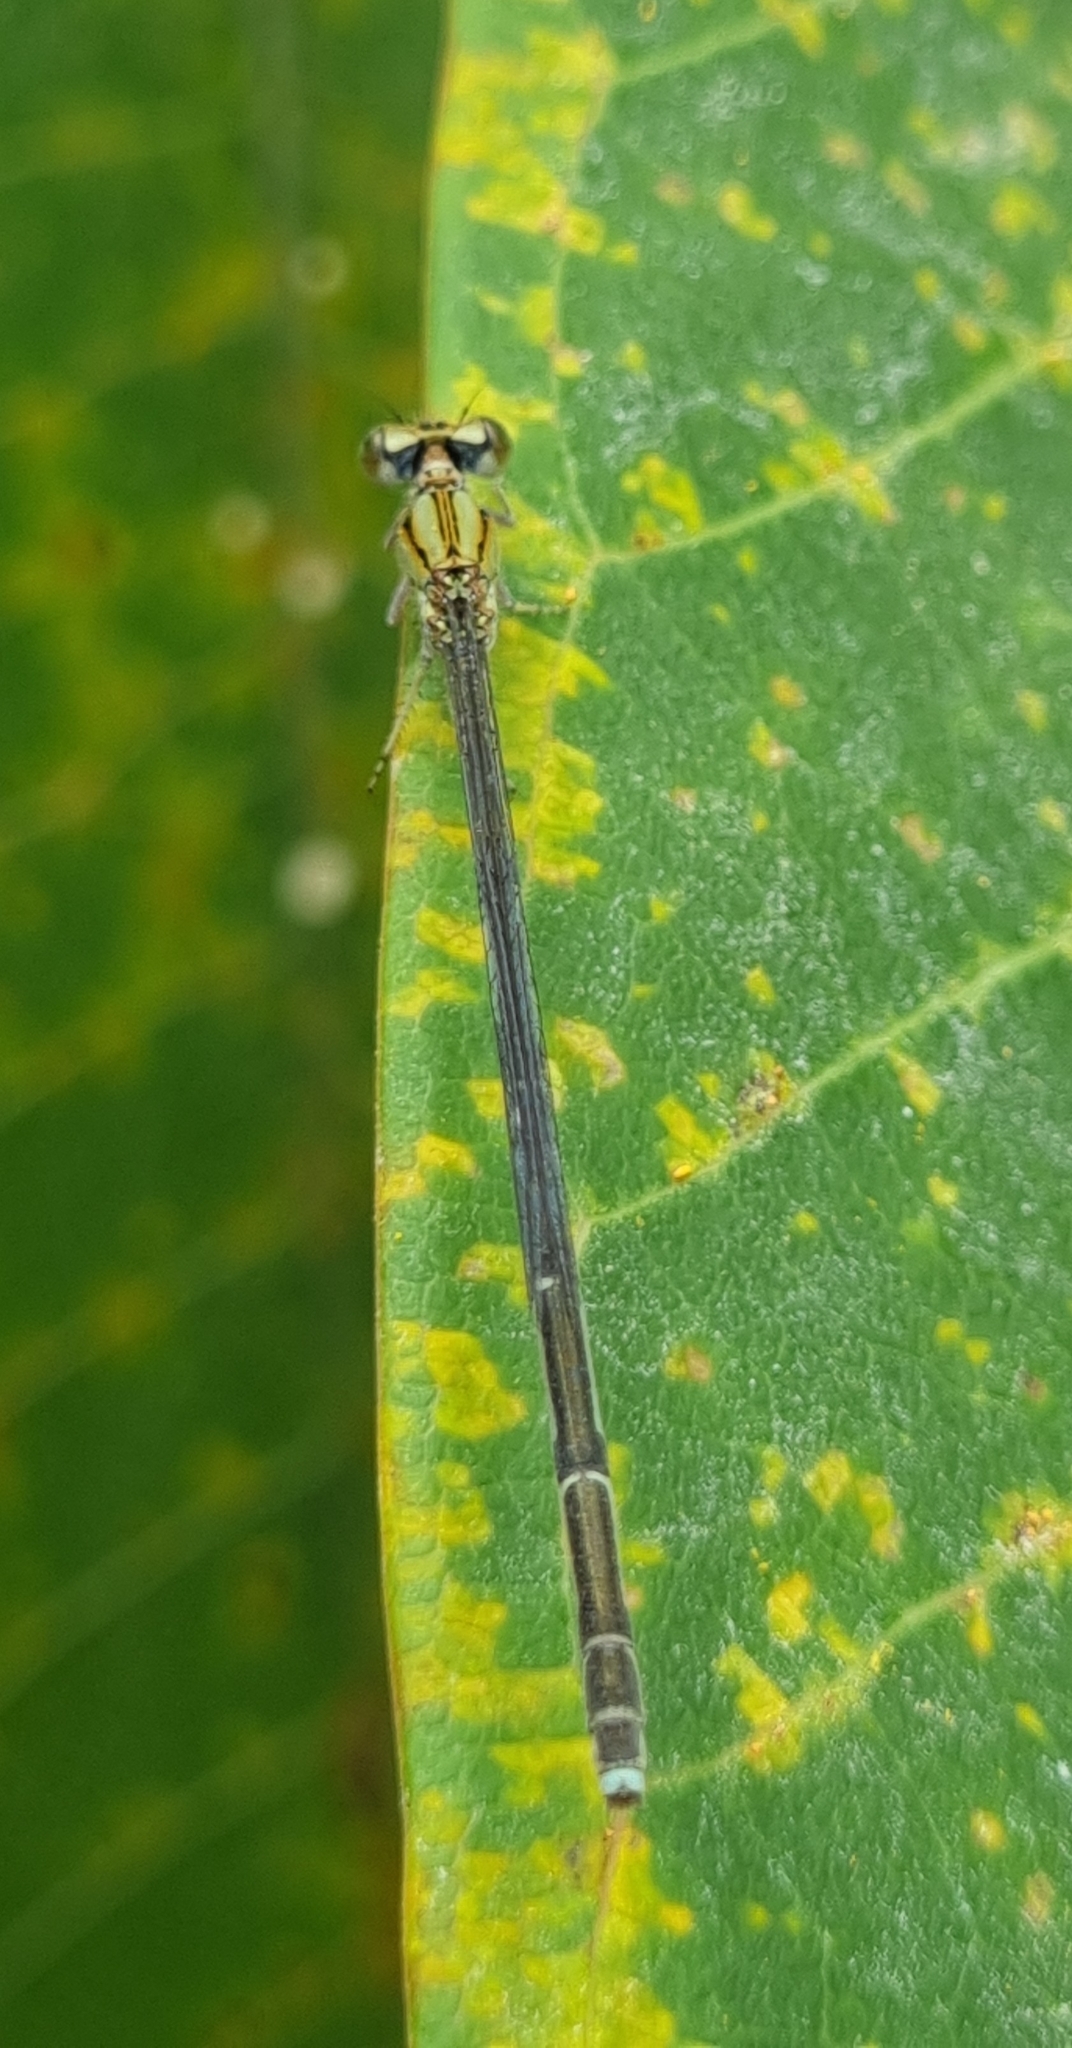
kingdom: Animalia
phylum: Arthropoda
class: Insecta
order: Odonata
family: Coenagrionidae
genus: Pseudagrion
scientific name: Pseudagrion
